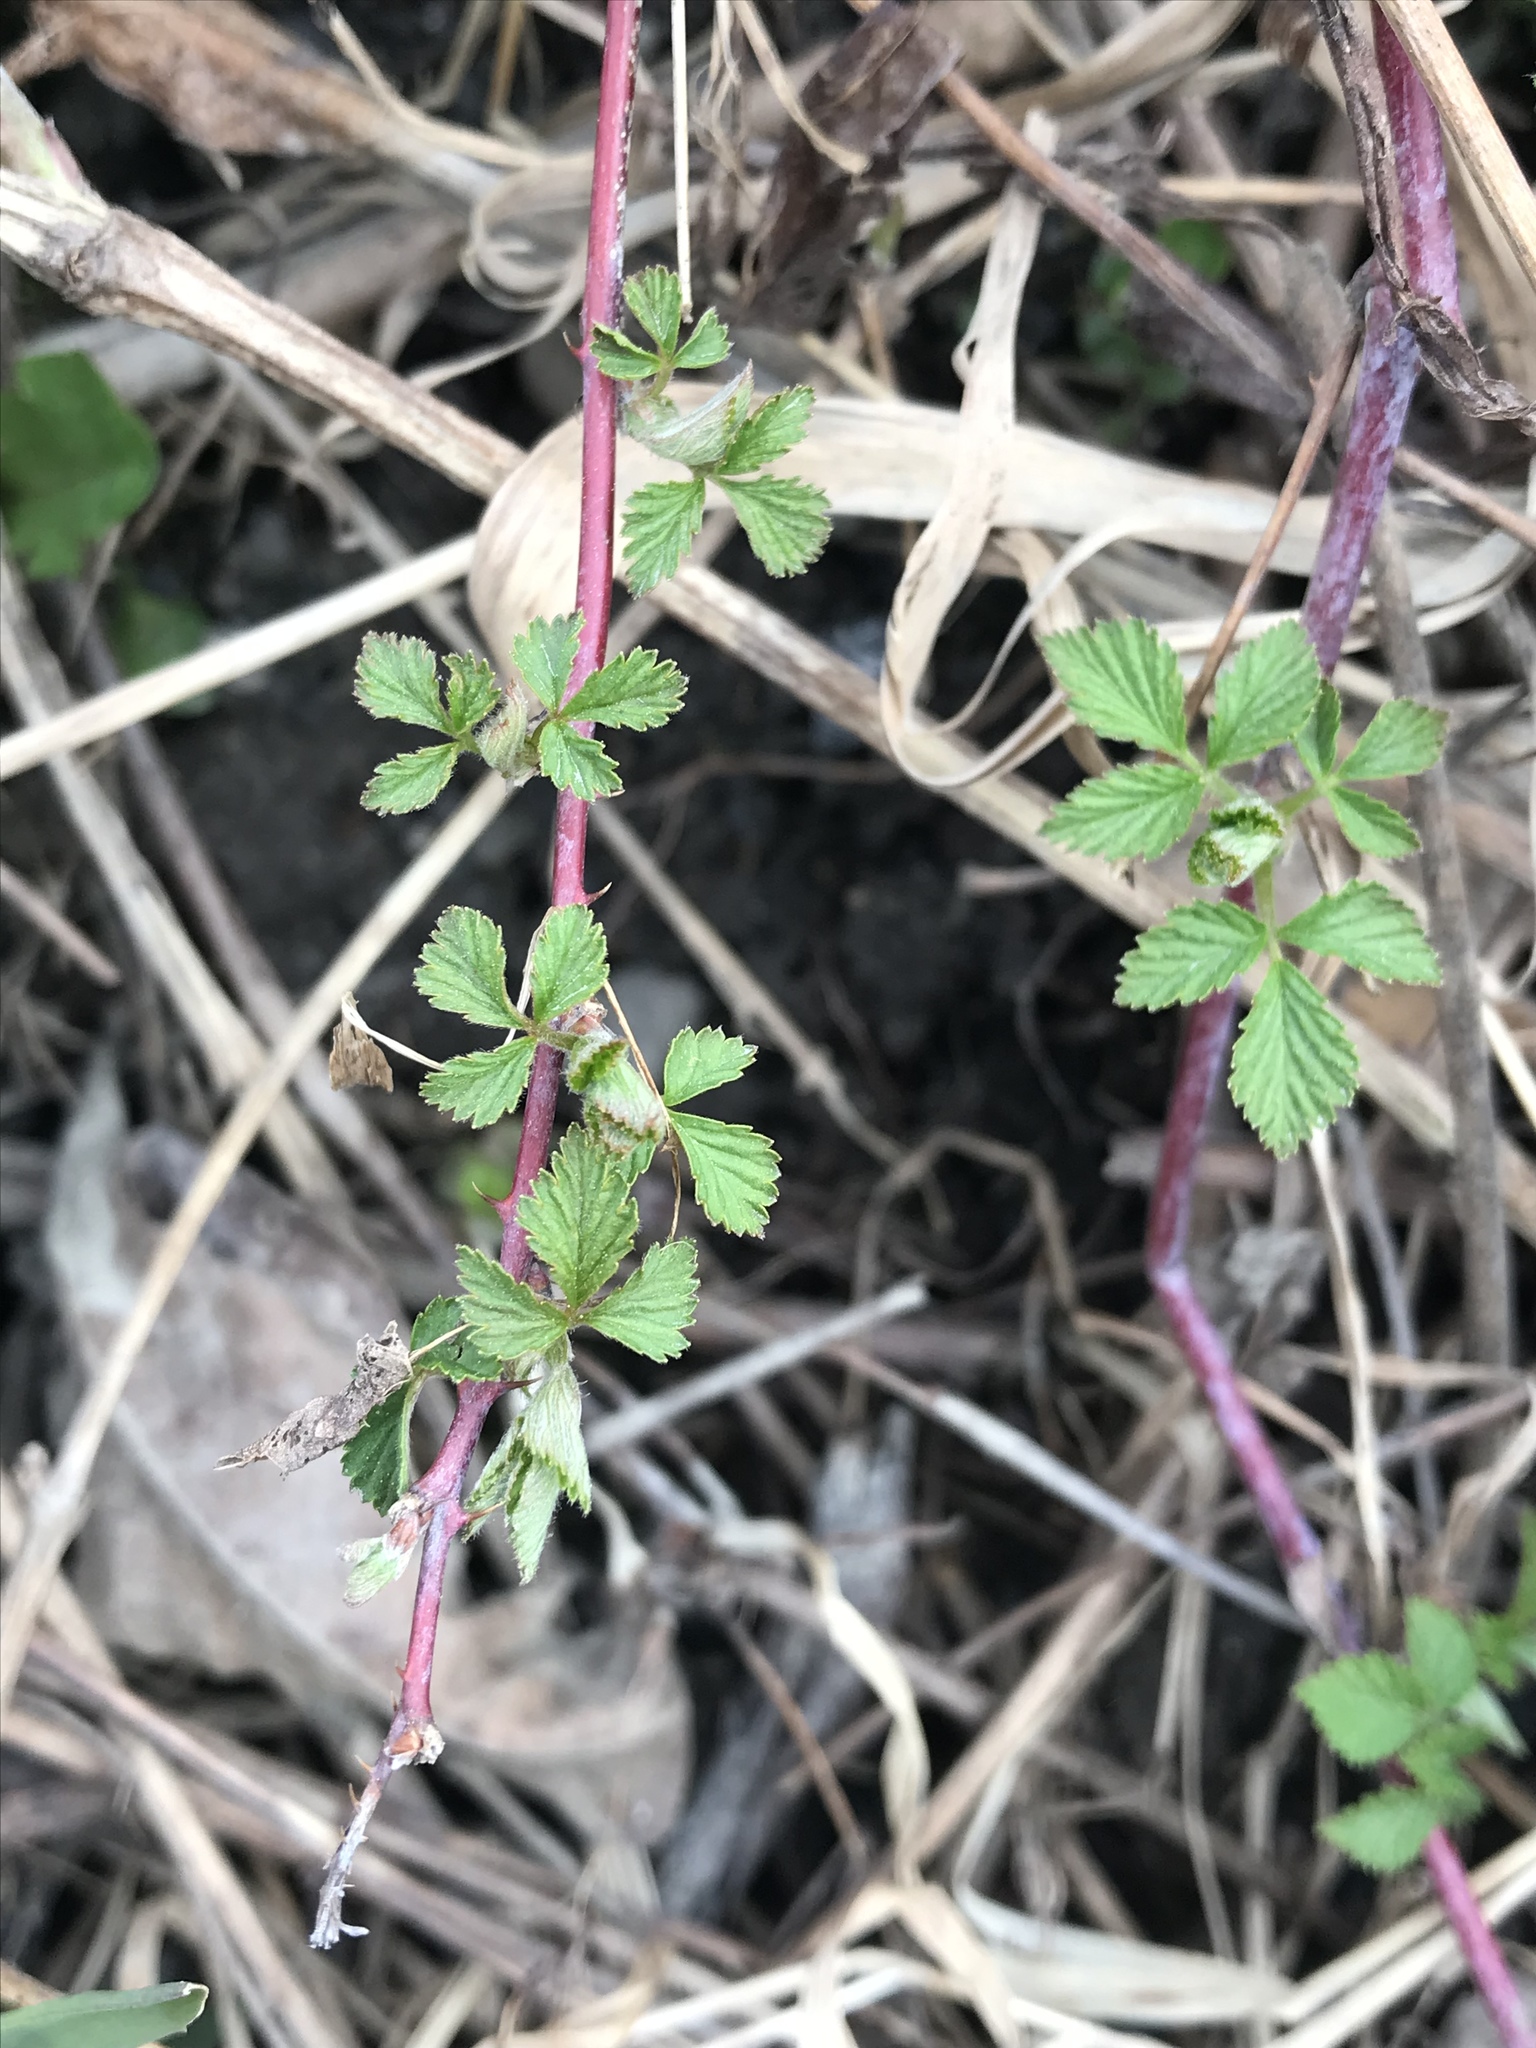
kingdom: Plantae
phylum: Tracheophyta
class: Magnoliopsida
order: Rosales
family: Rosaceae
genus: Rubus
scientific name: Rubus occidentalis
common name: Black raspberry
